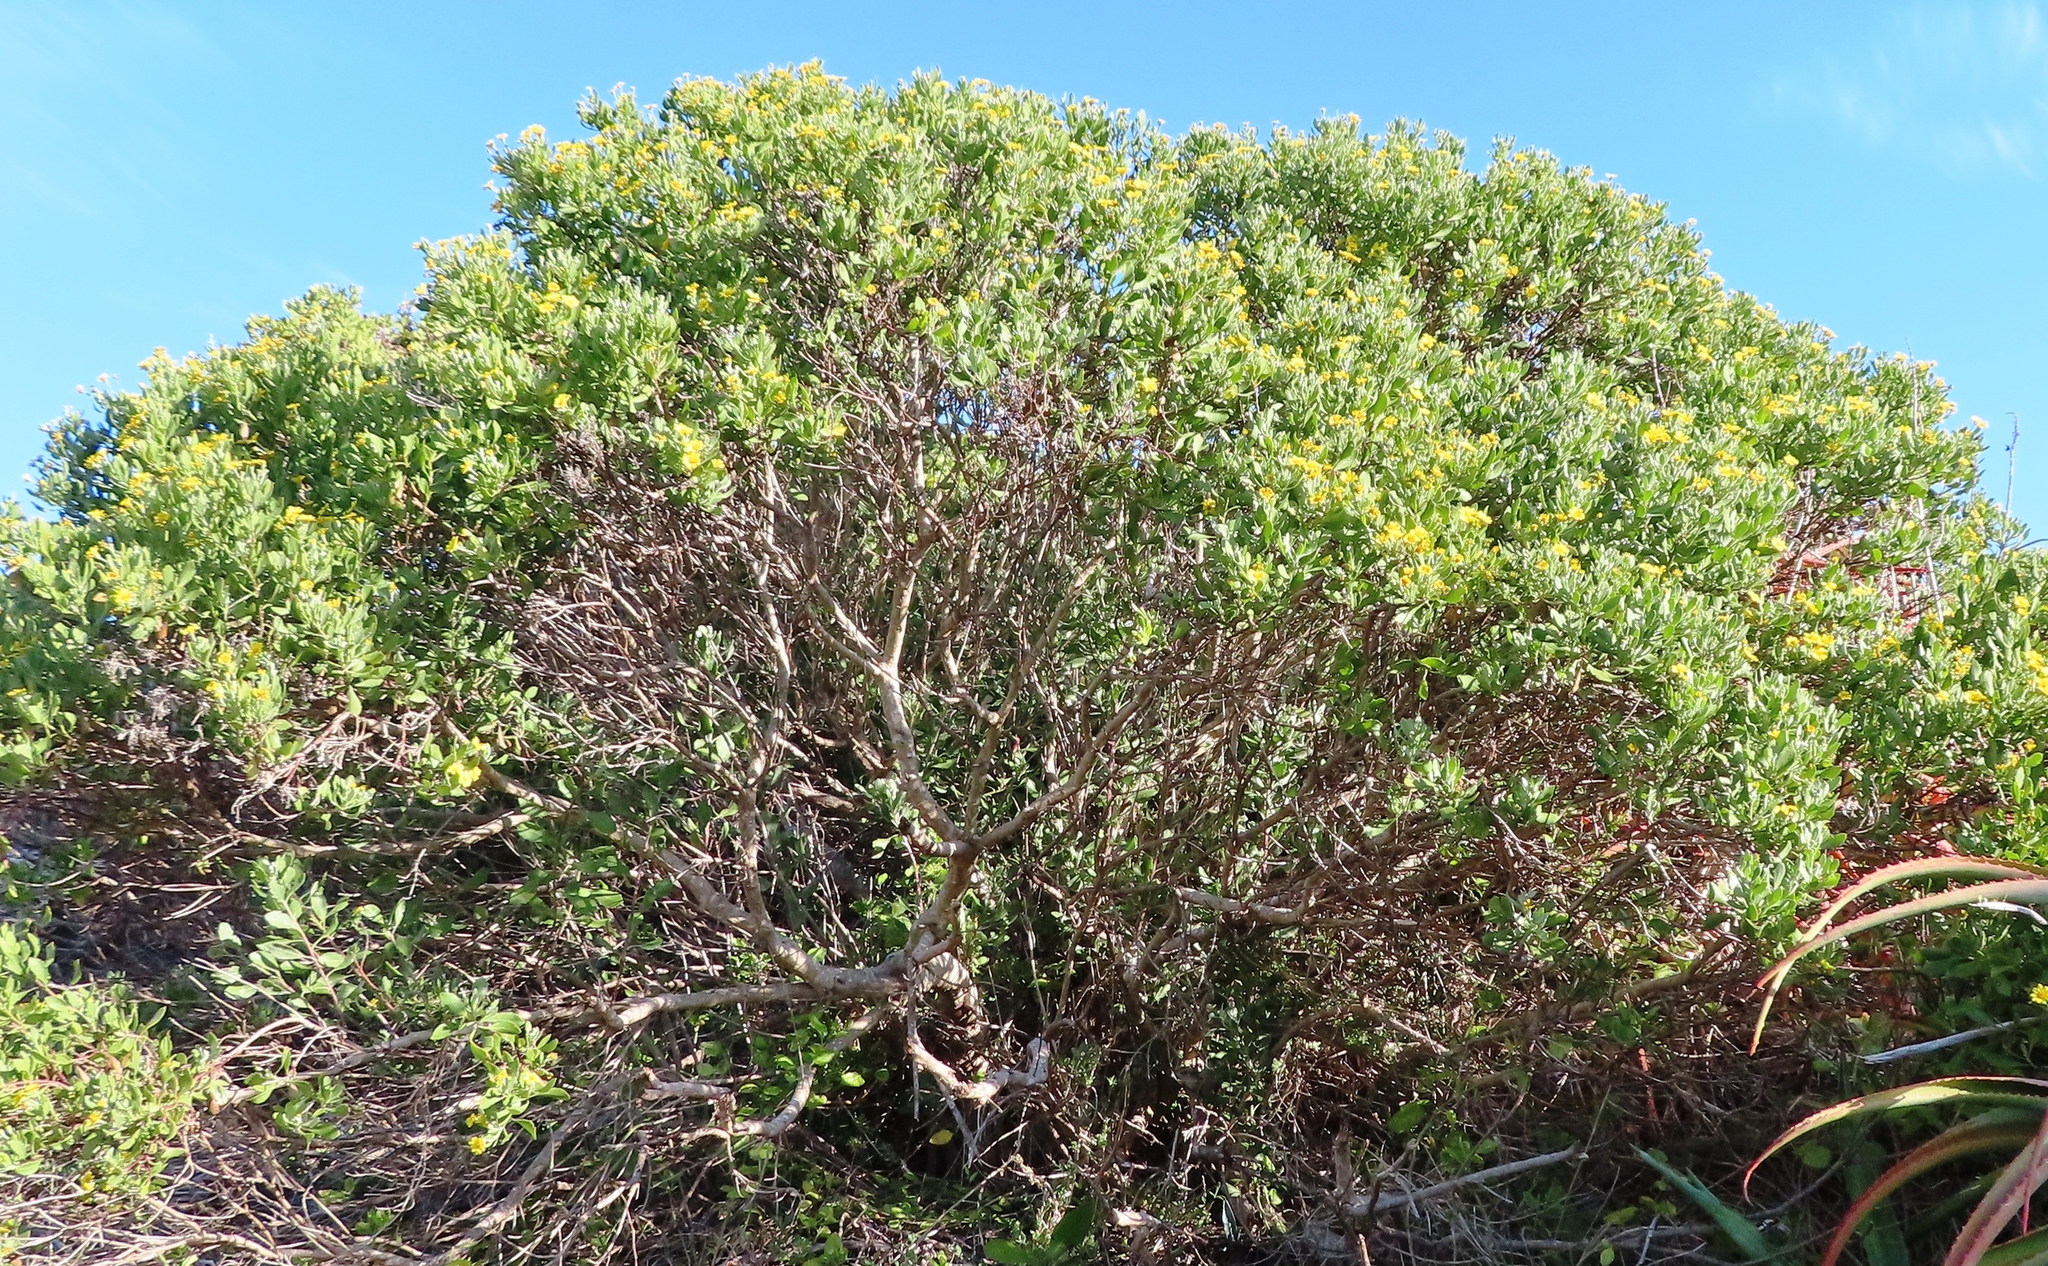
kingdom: Plantae
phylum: Tracheophyta
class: Magnoliopsida
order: Asterales
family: Asteraceae
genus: Osteospermum
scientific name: Osteospermum moniliferum
